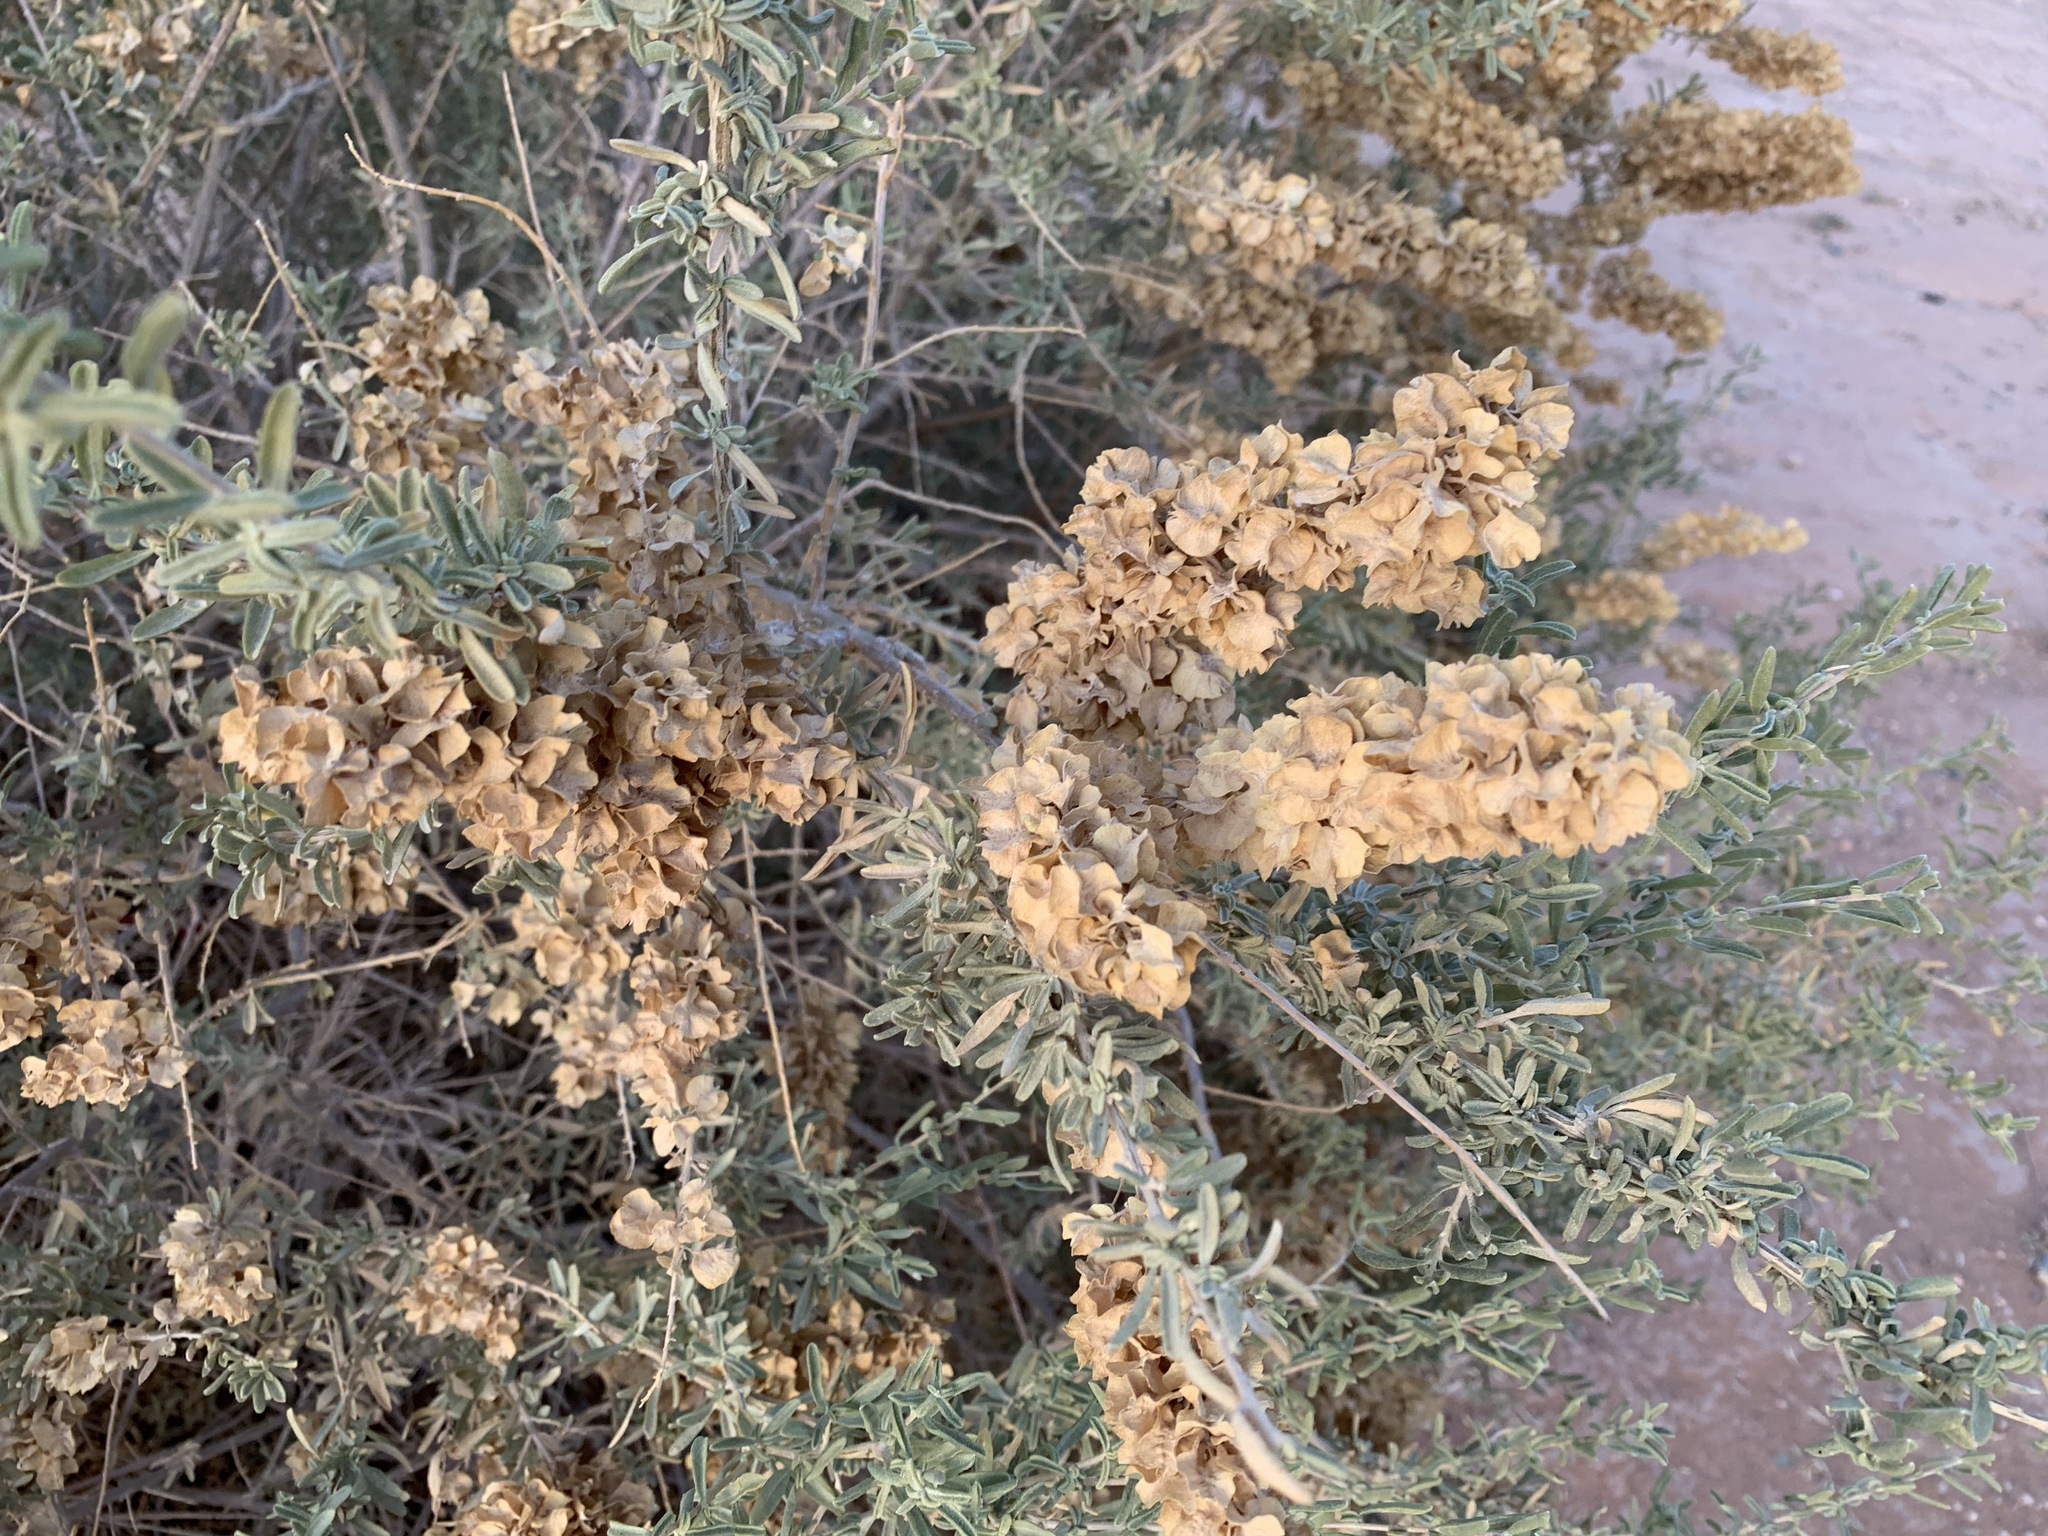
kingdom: Plantae
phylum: Tracheophyta
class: Magnoliopsida
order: Caryophyllales
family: Amaranthaceae
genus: Atriplex
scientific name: Atriplex canescens
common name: Four-wing saltbush
